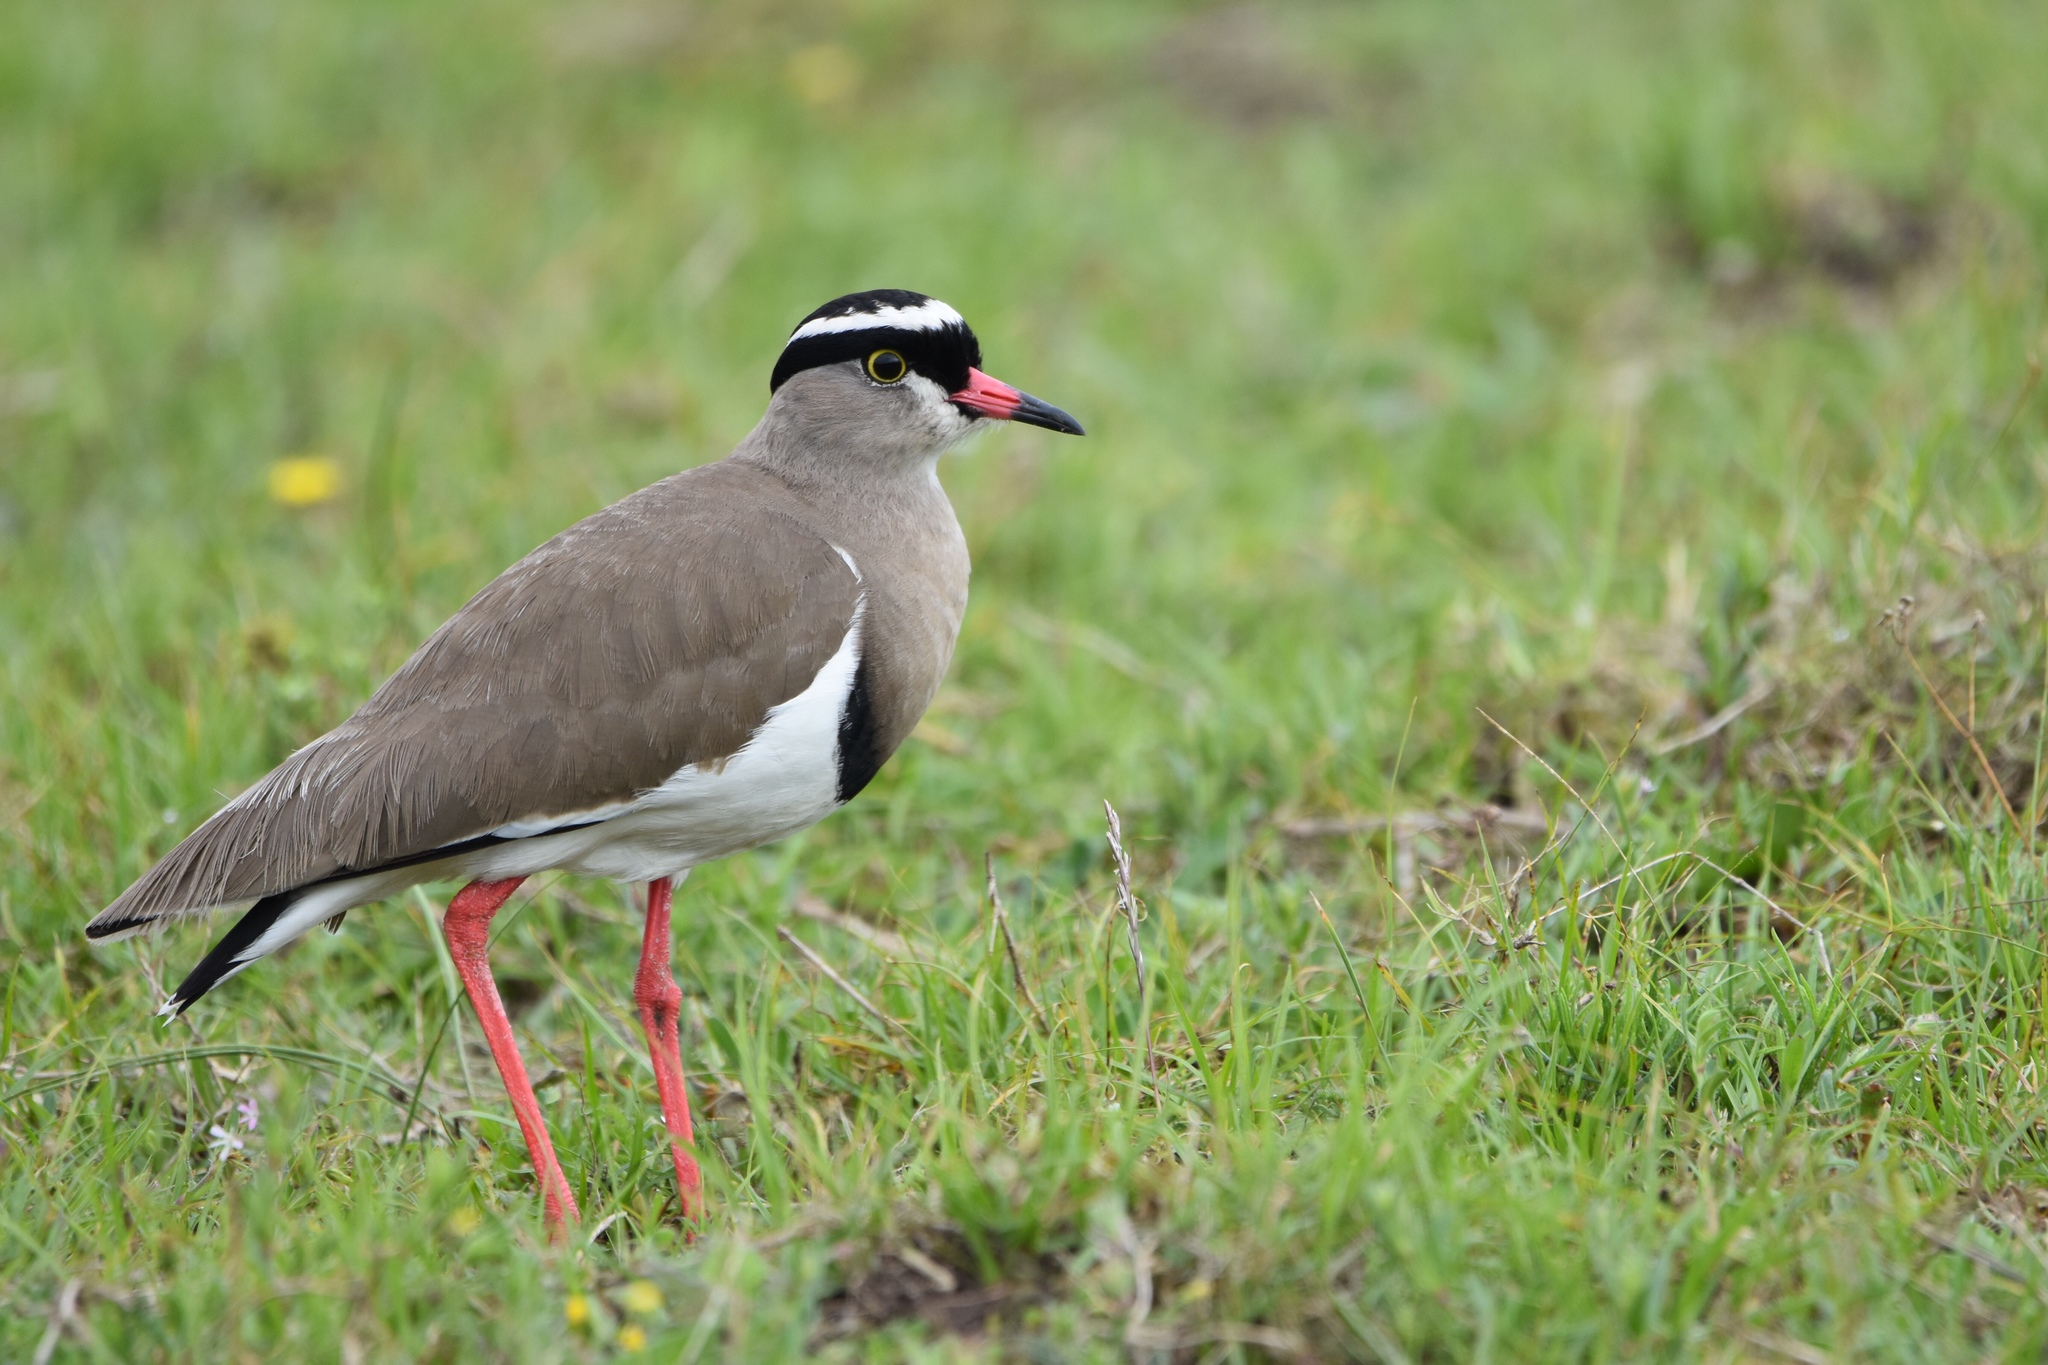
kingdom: Animalia
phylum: Chordata
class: Aves
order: Charadriiformes
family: Charadriidae
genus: Vanellus
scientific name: Vanellus coronatus
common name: Crowned lapwing
